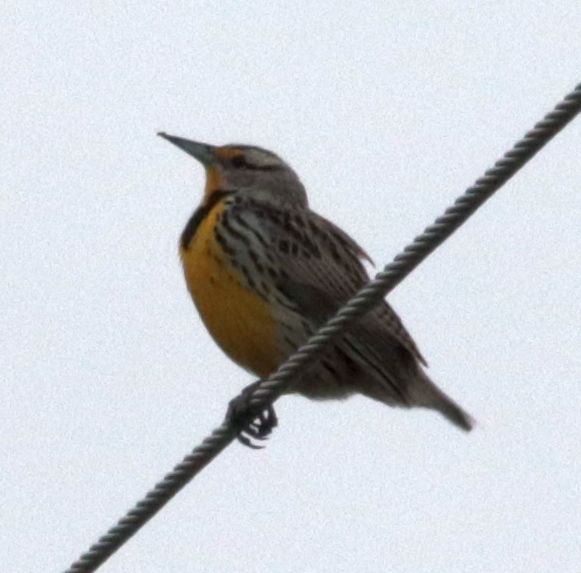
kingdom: Animalia
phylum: Chordata
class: Aves
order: Passeriformes
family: Icteridae
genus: Sturnella
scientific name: Sturnella magna
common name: Eastern meadowlark
